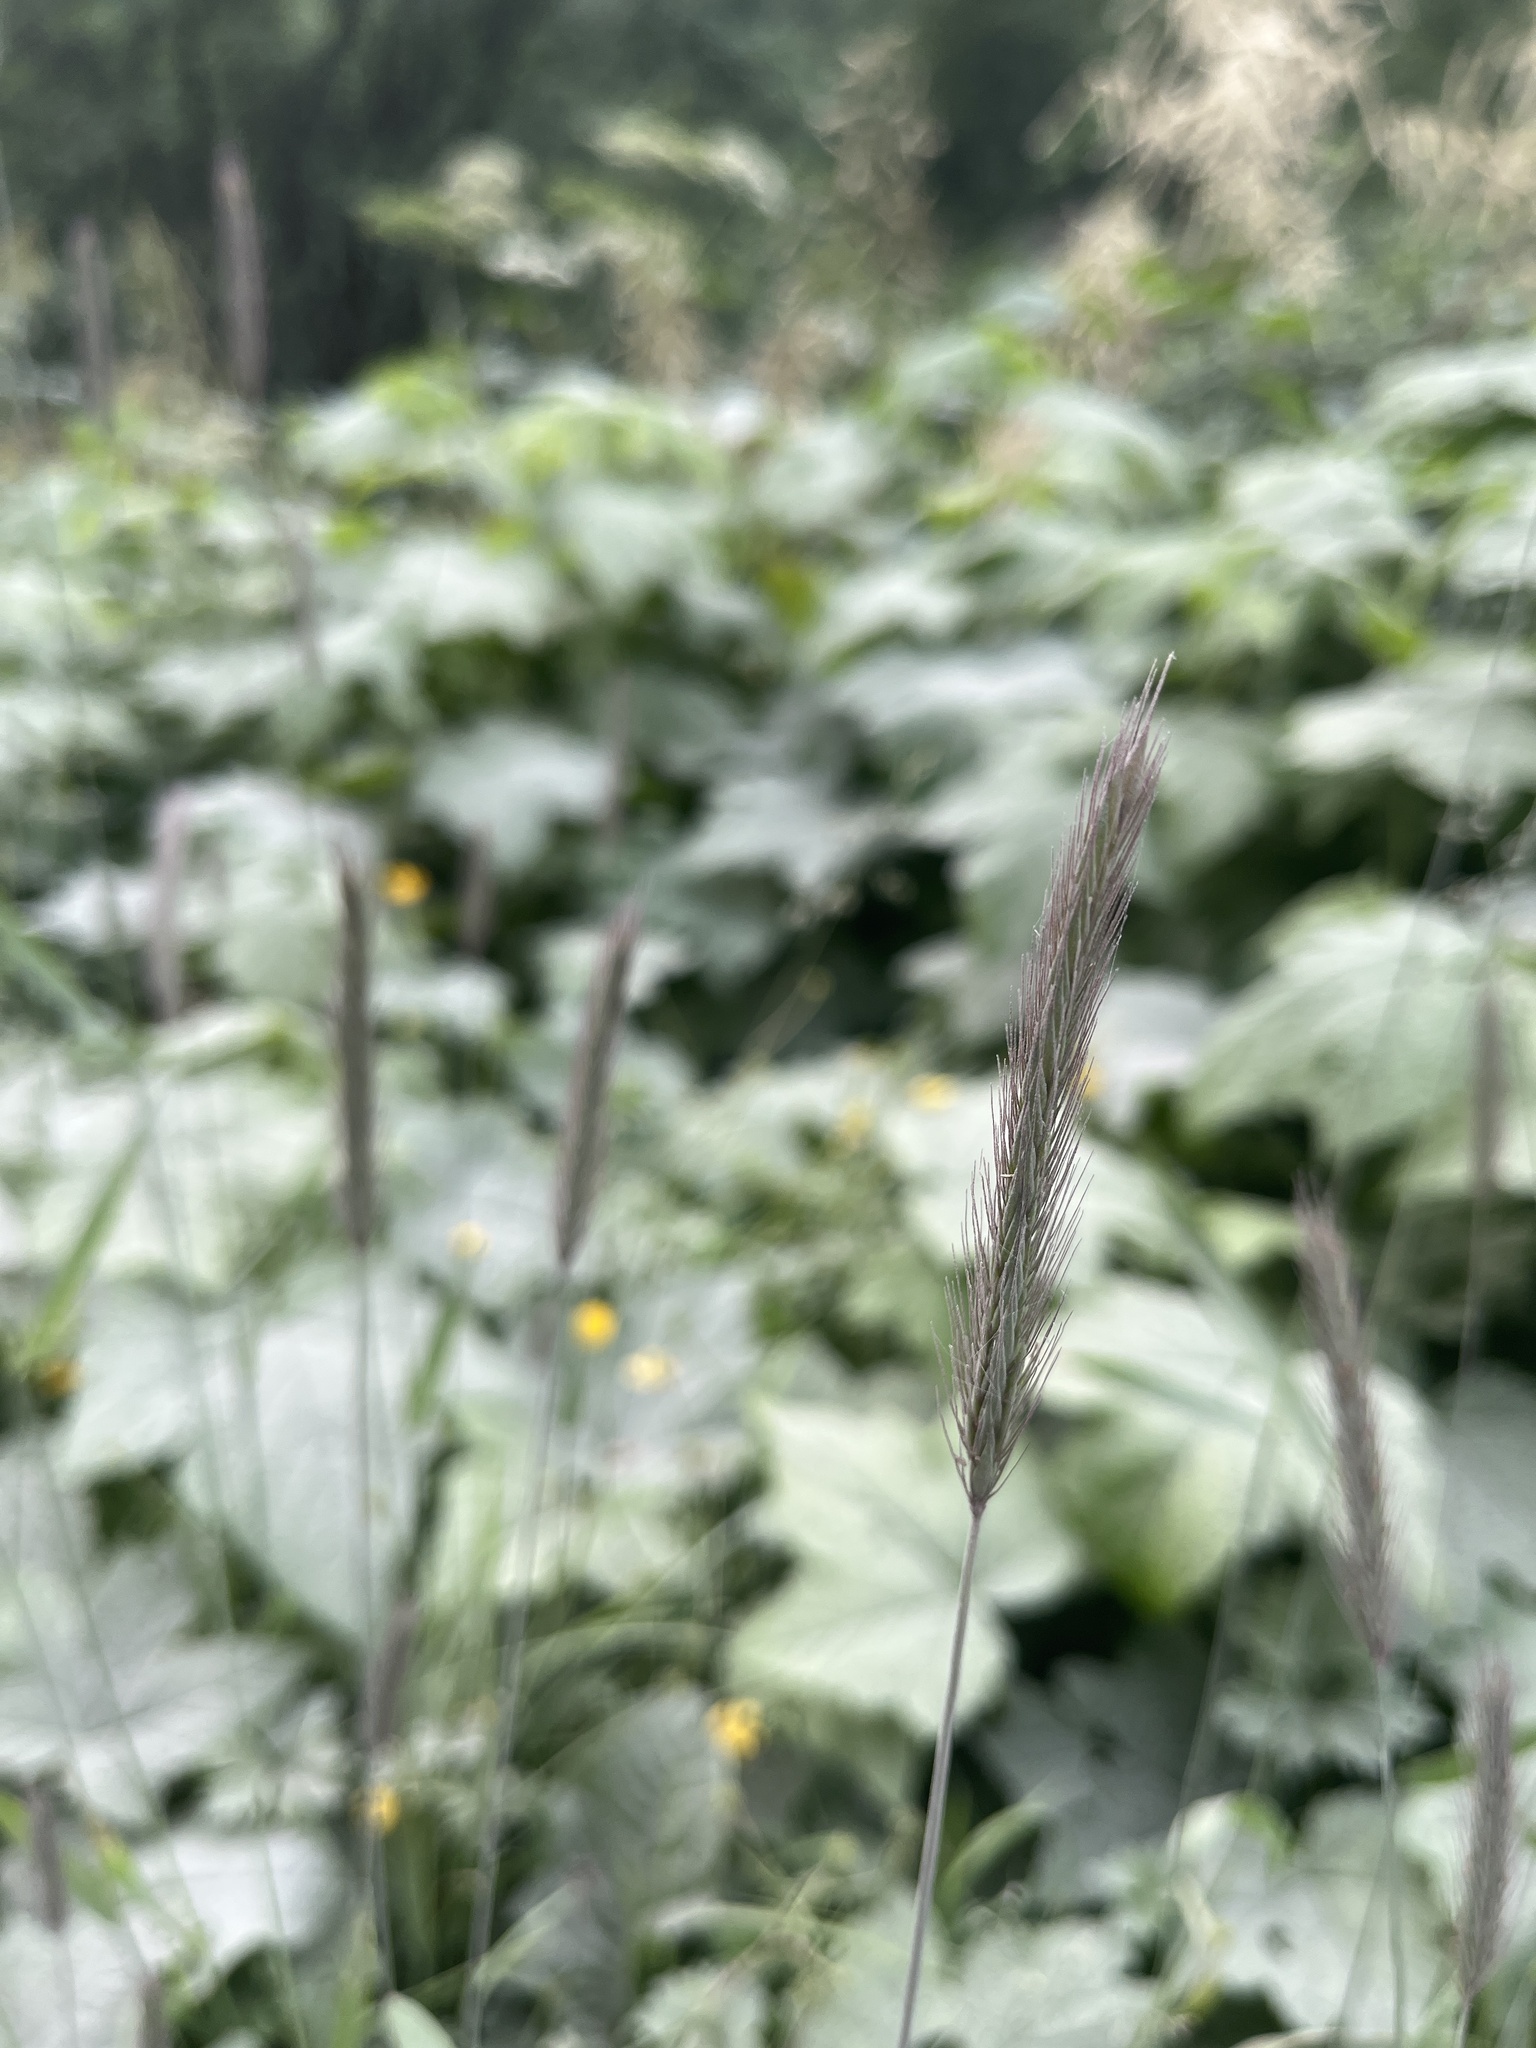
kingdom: Plantae
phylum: Tracheophyta
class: Liliopsida
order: Poales
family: Poaceae
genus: Hordeum
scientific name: Hordeum brachyantherum
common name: Meadow barley
